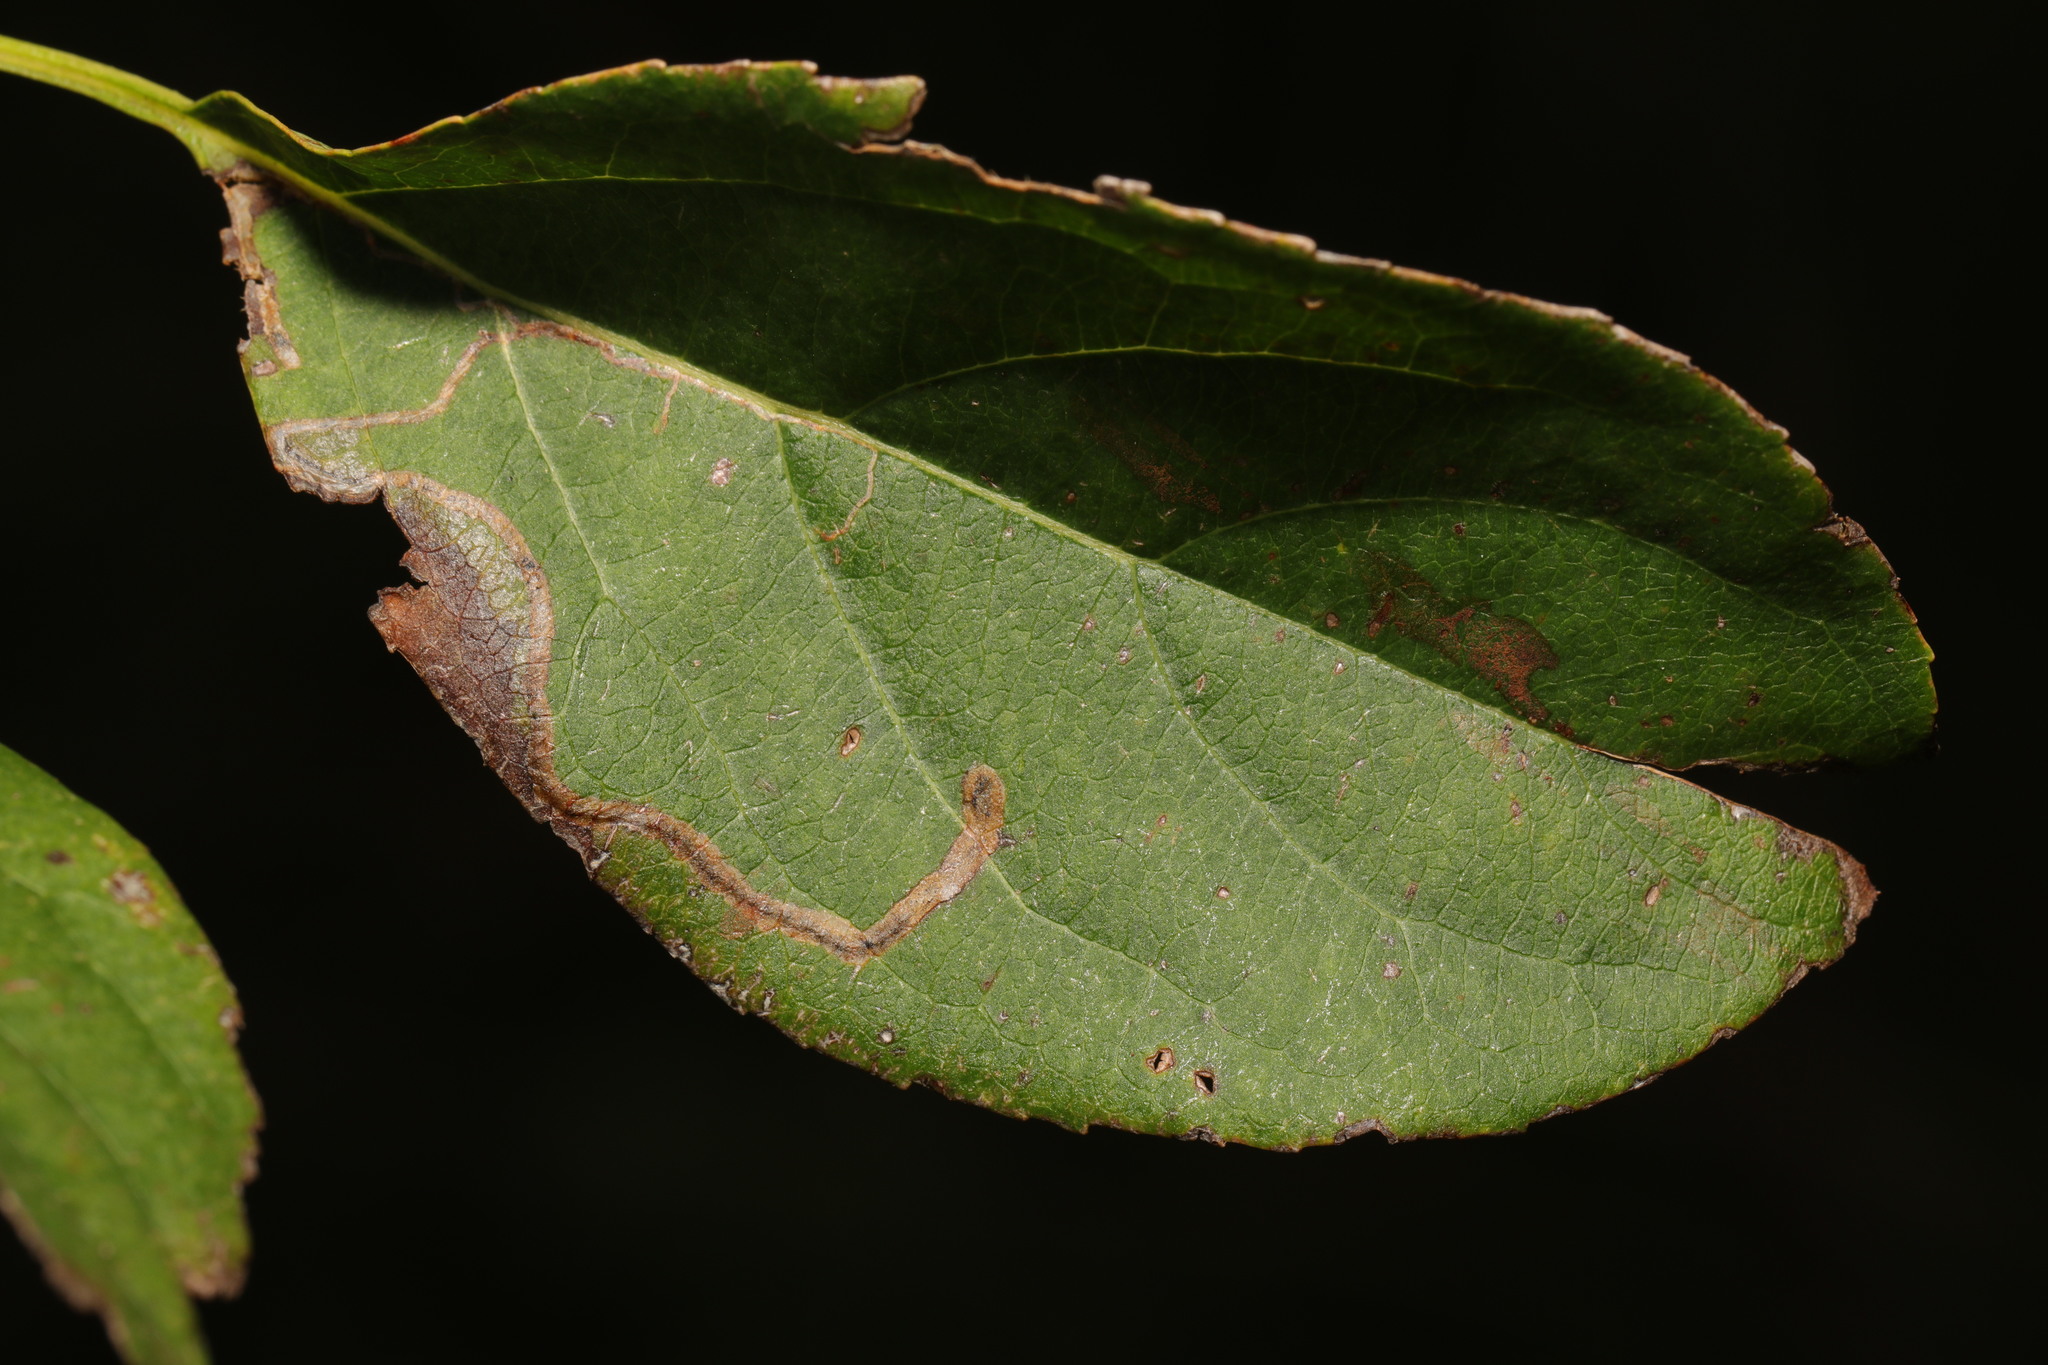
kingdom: Animalia
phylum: Arthropoda
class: Insecta
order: Lepidoptera
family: Lyonetiidae
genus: Lyonetia
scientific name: Lyonetia clerkella
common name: Apple leaf miner
